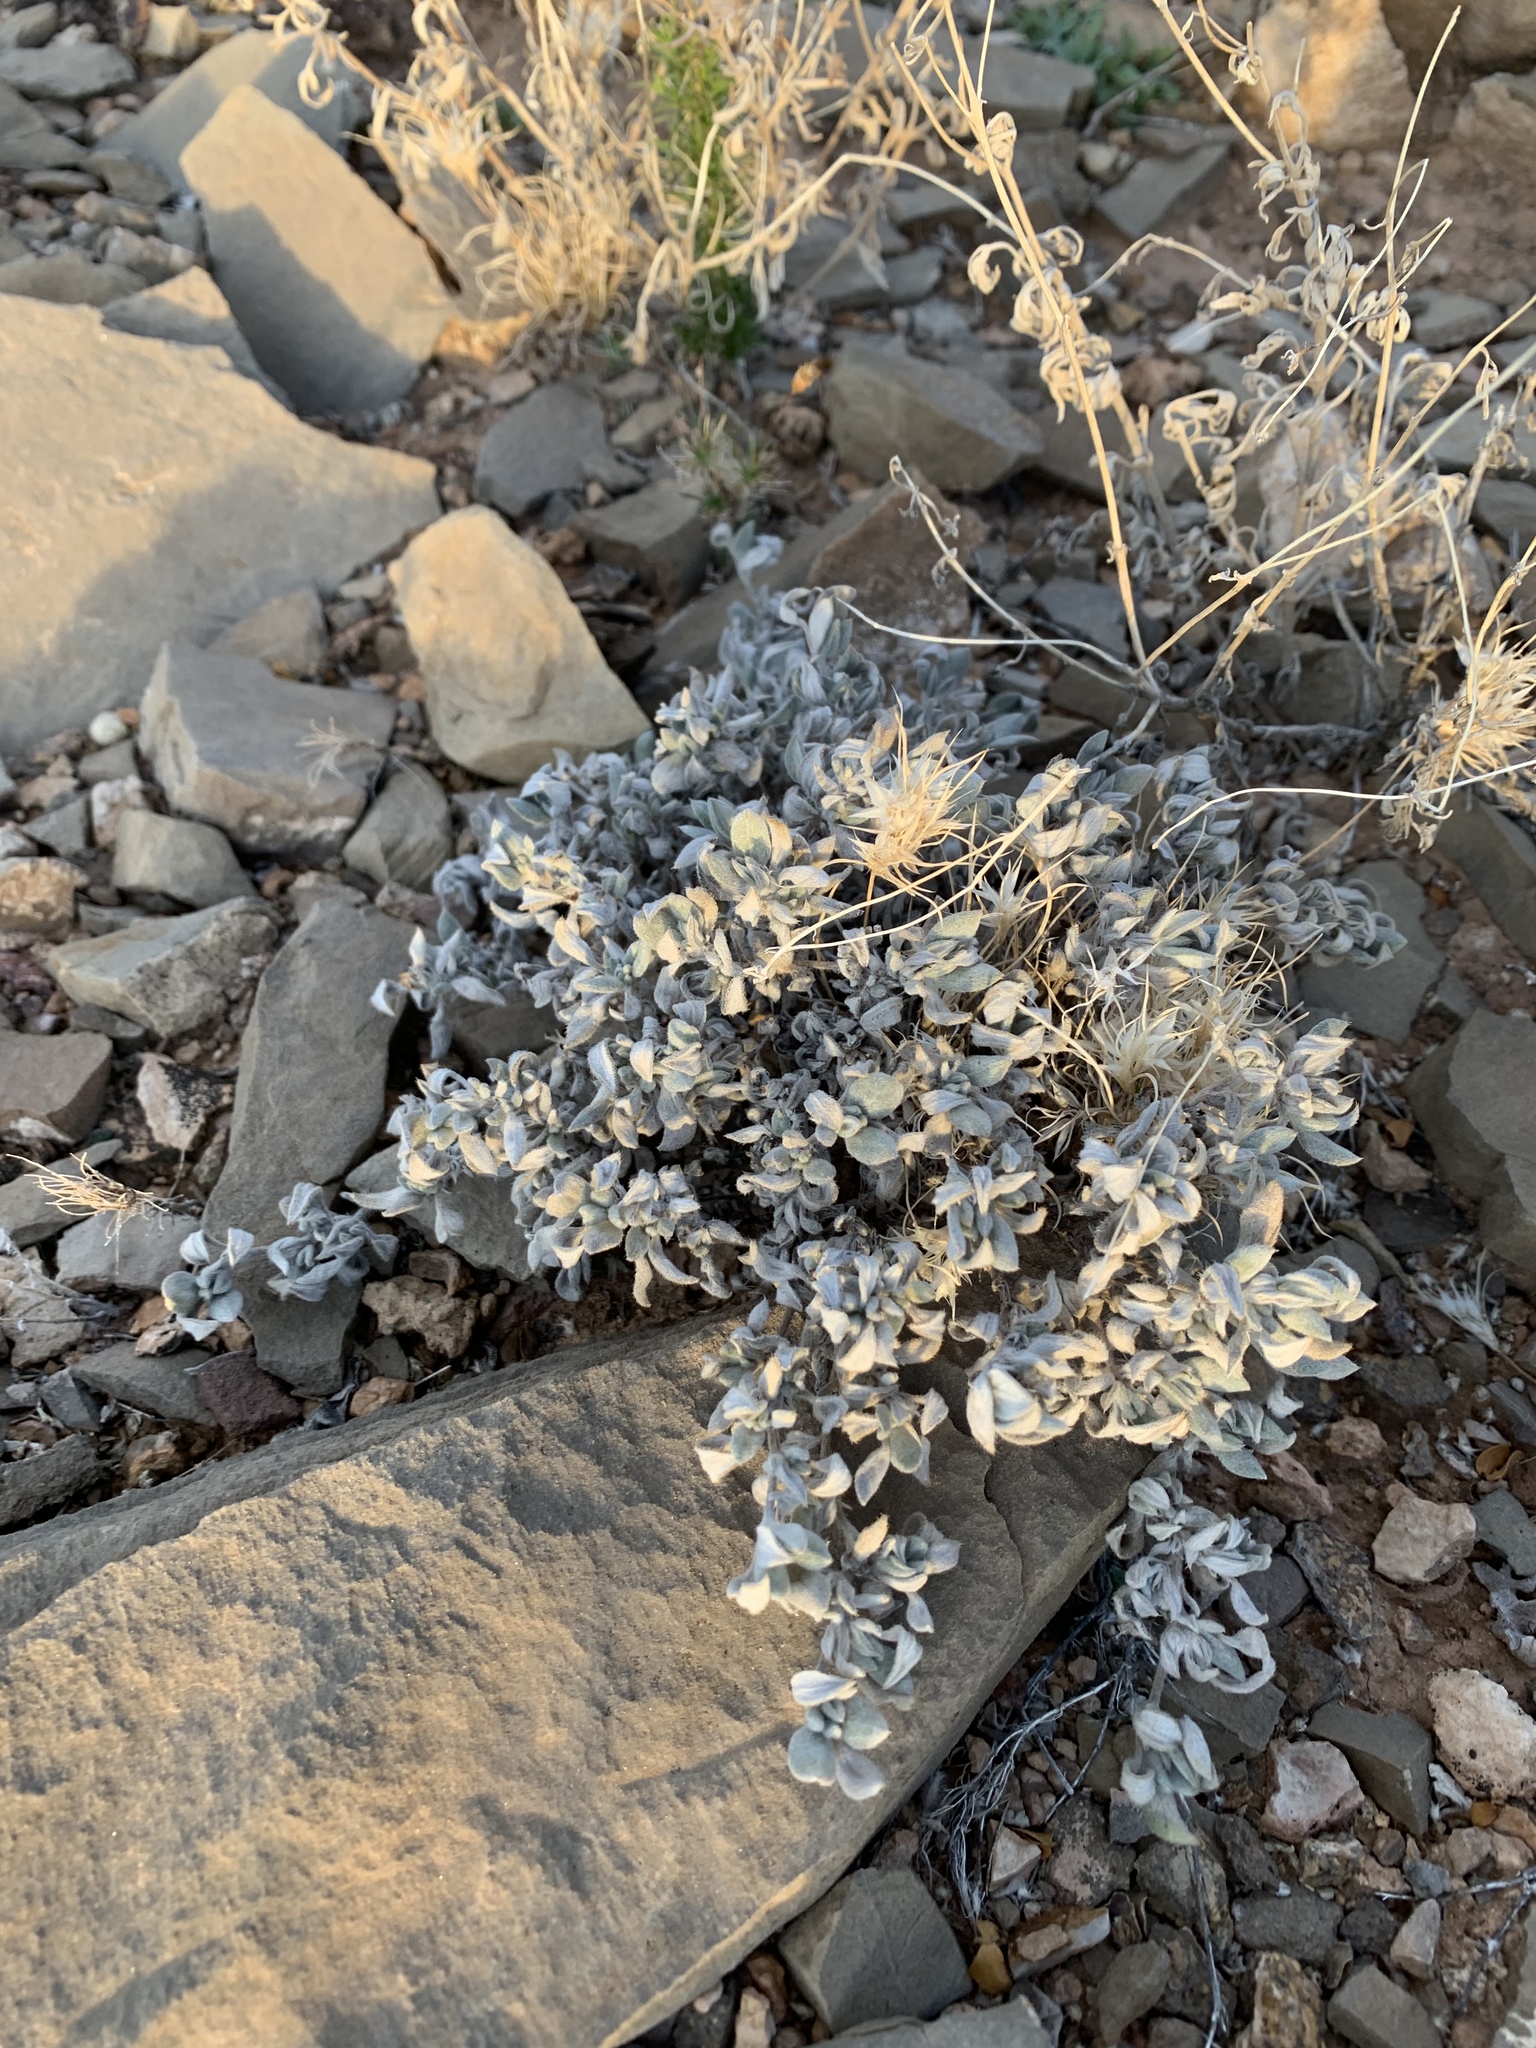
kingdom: Plantae
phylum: Tracheophyta
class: Magnoliopsida
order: Boraginales
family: Ehretiaceae
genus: Tiquilia
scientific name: Tiquilia canescens
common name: Hairy tiquilia
